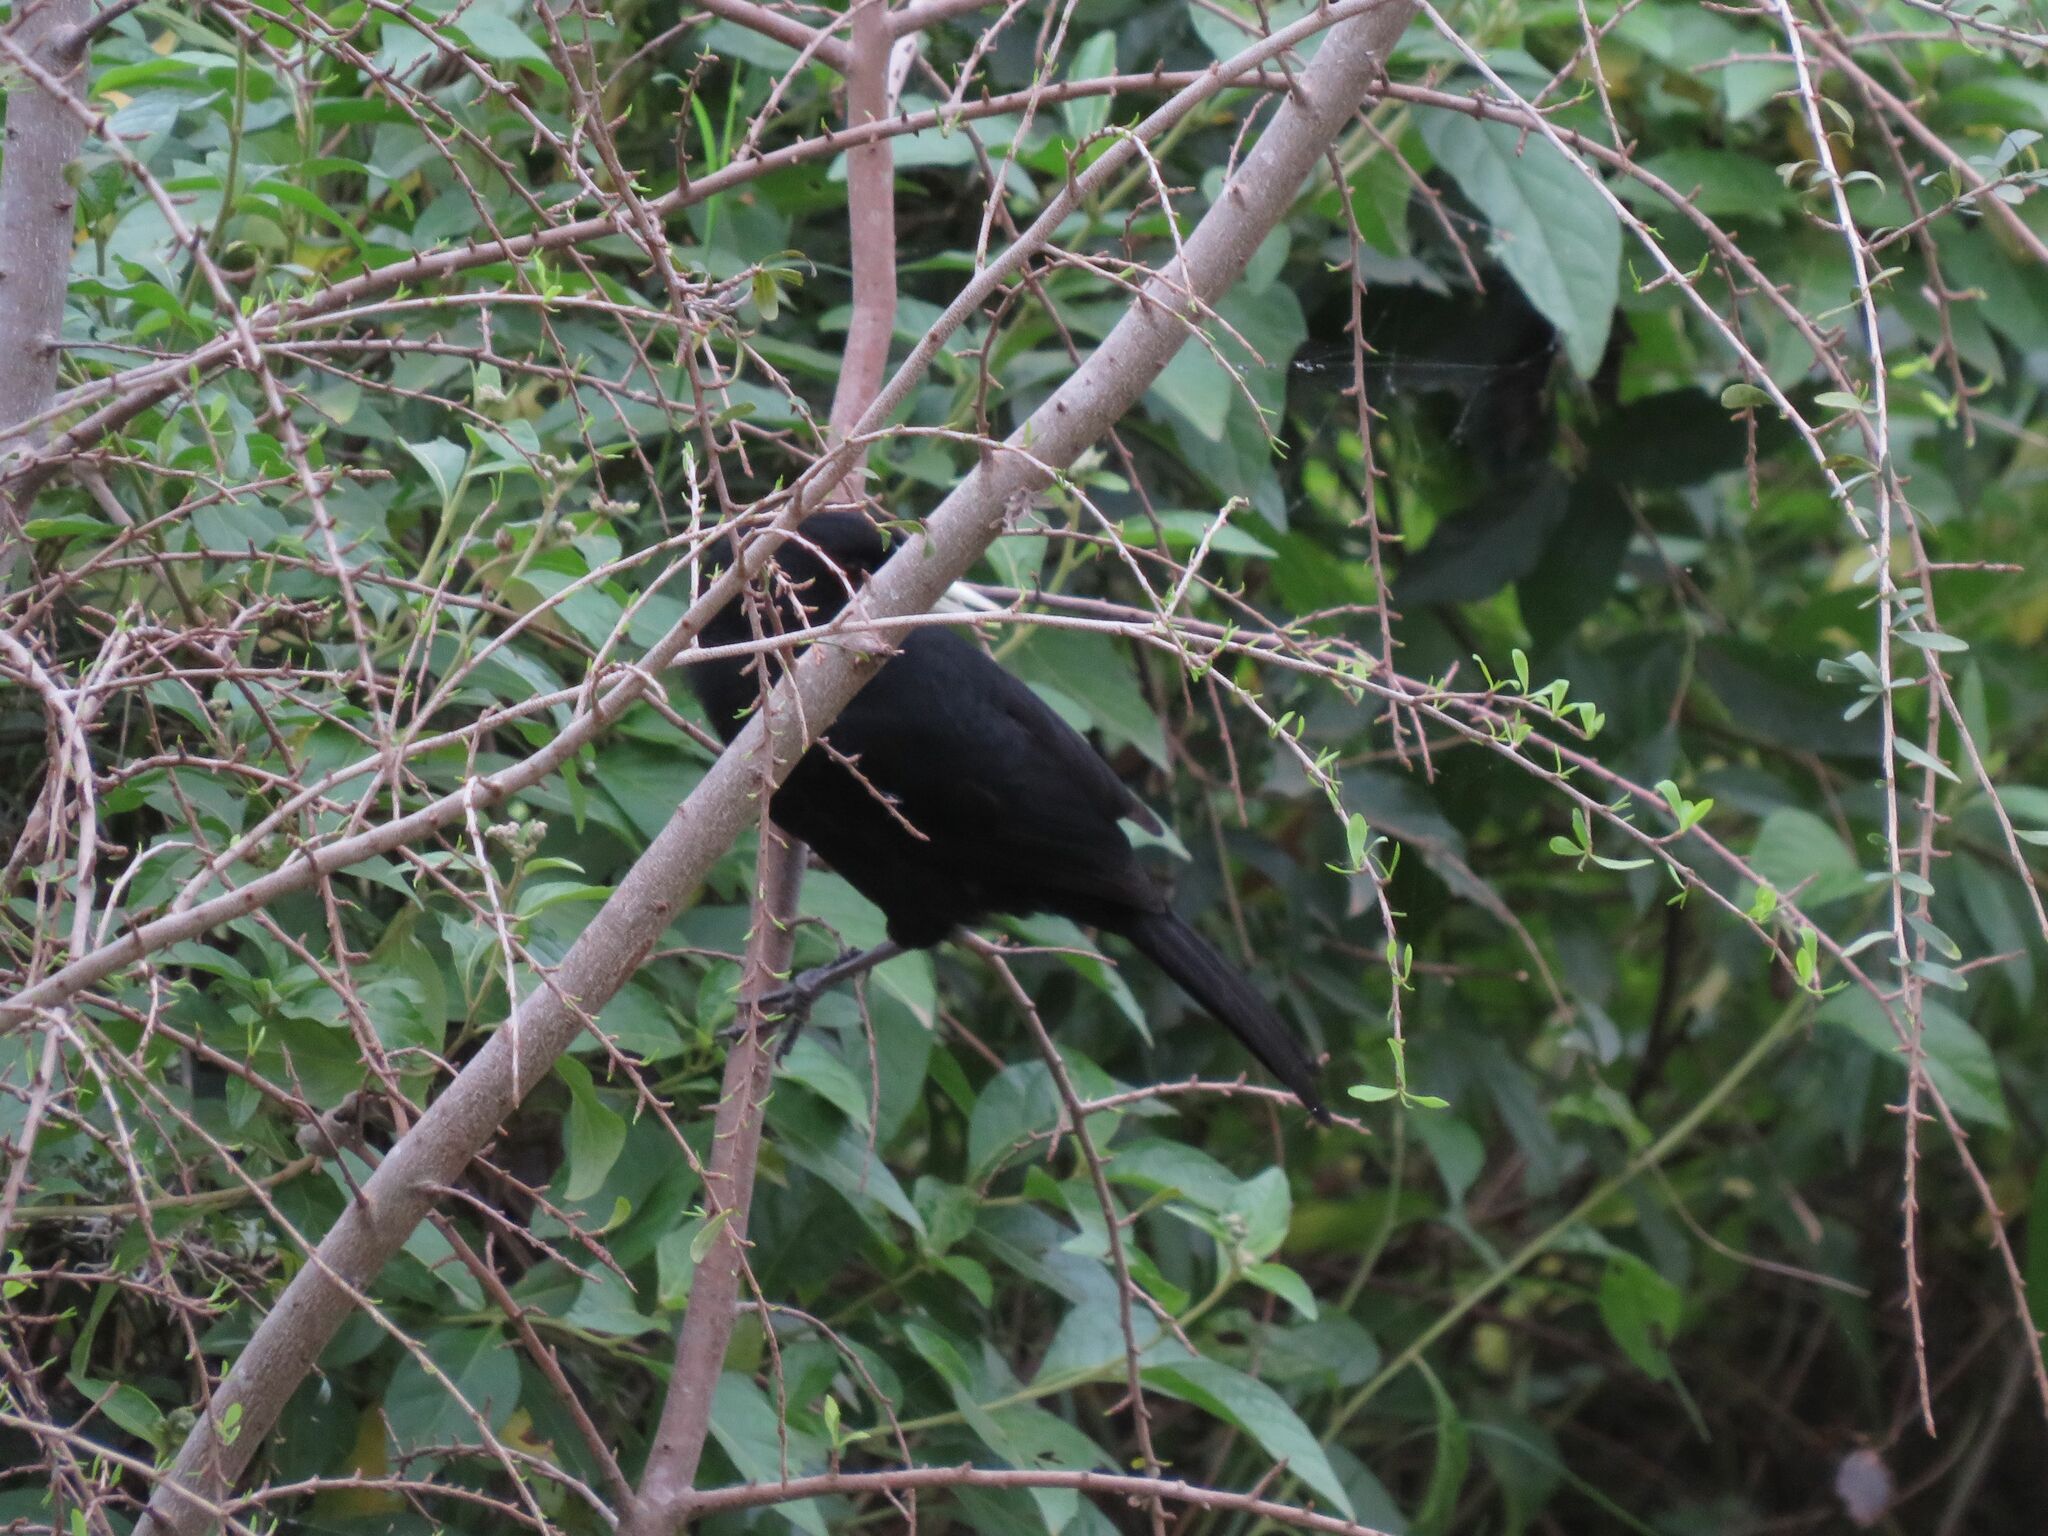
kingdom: Animalia
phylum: Chordata
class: Aves
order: Passeriformes
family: Icteridae
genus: Cacicus
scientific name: Cacicus solitarius
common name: Solitary cacique
